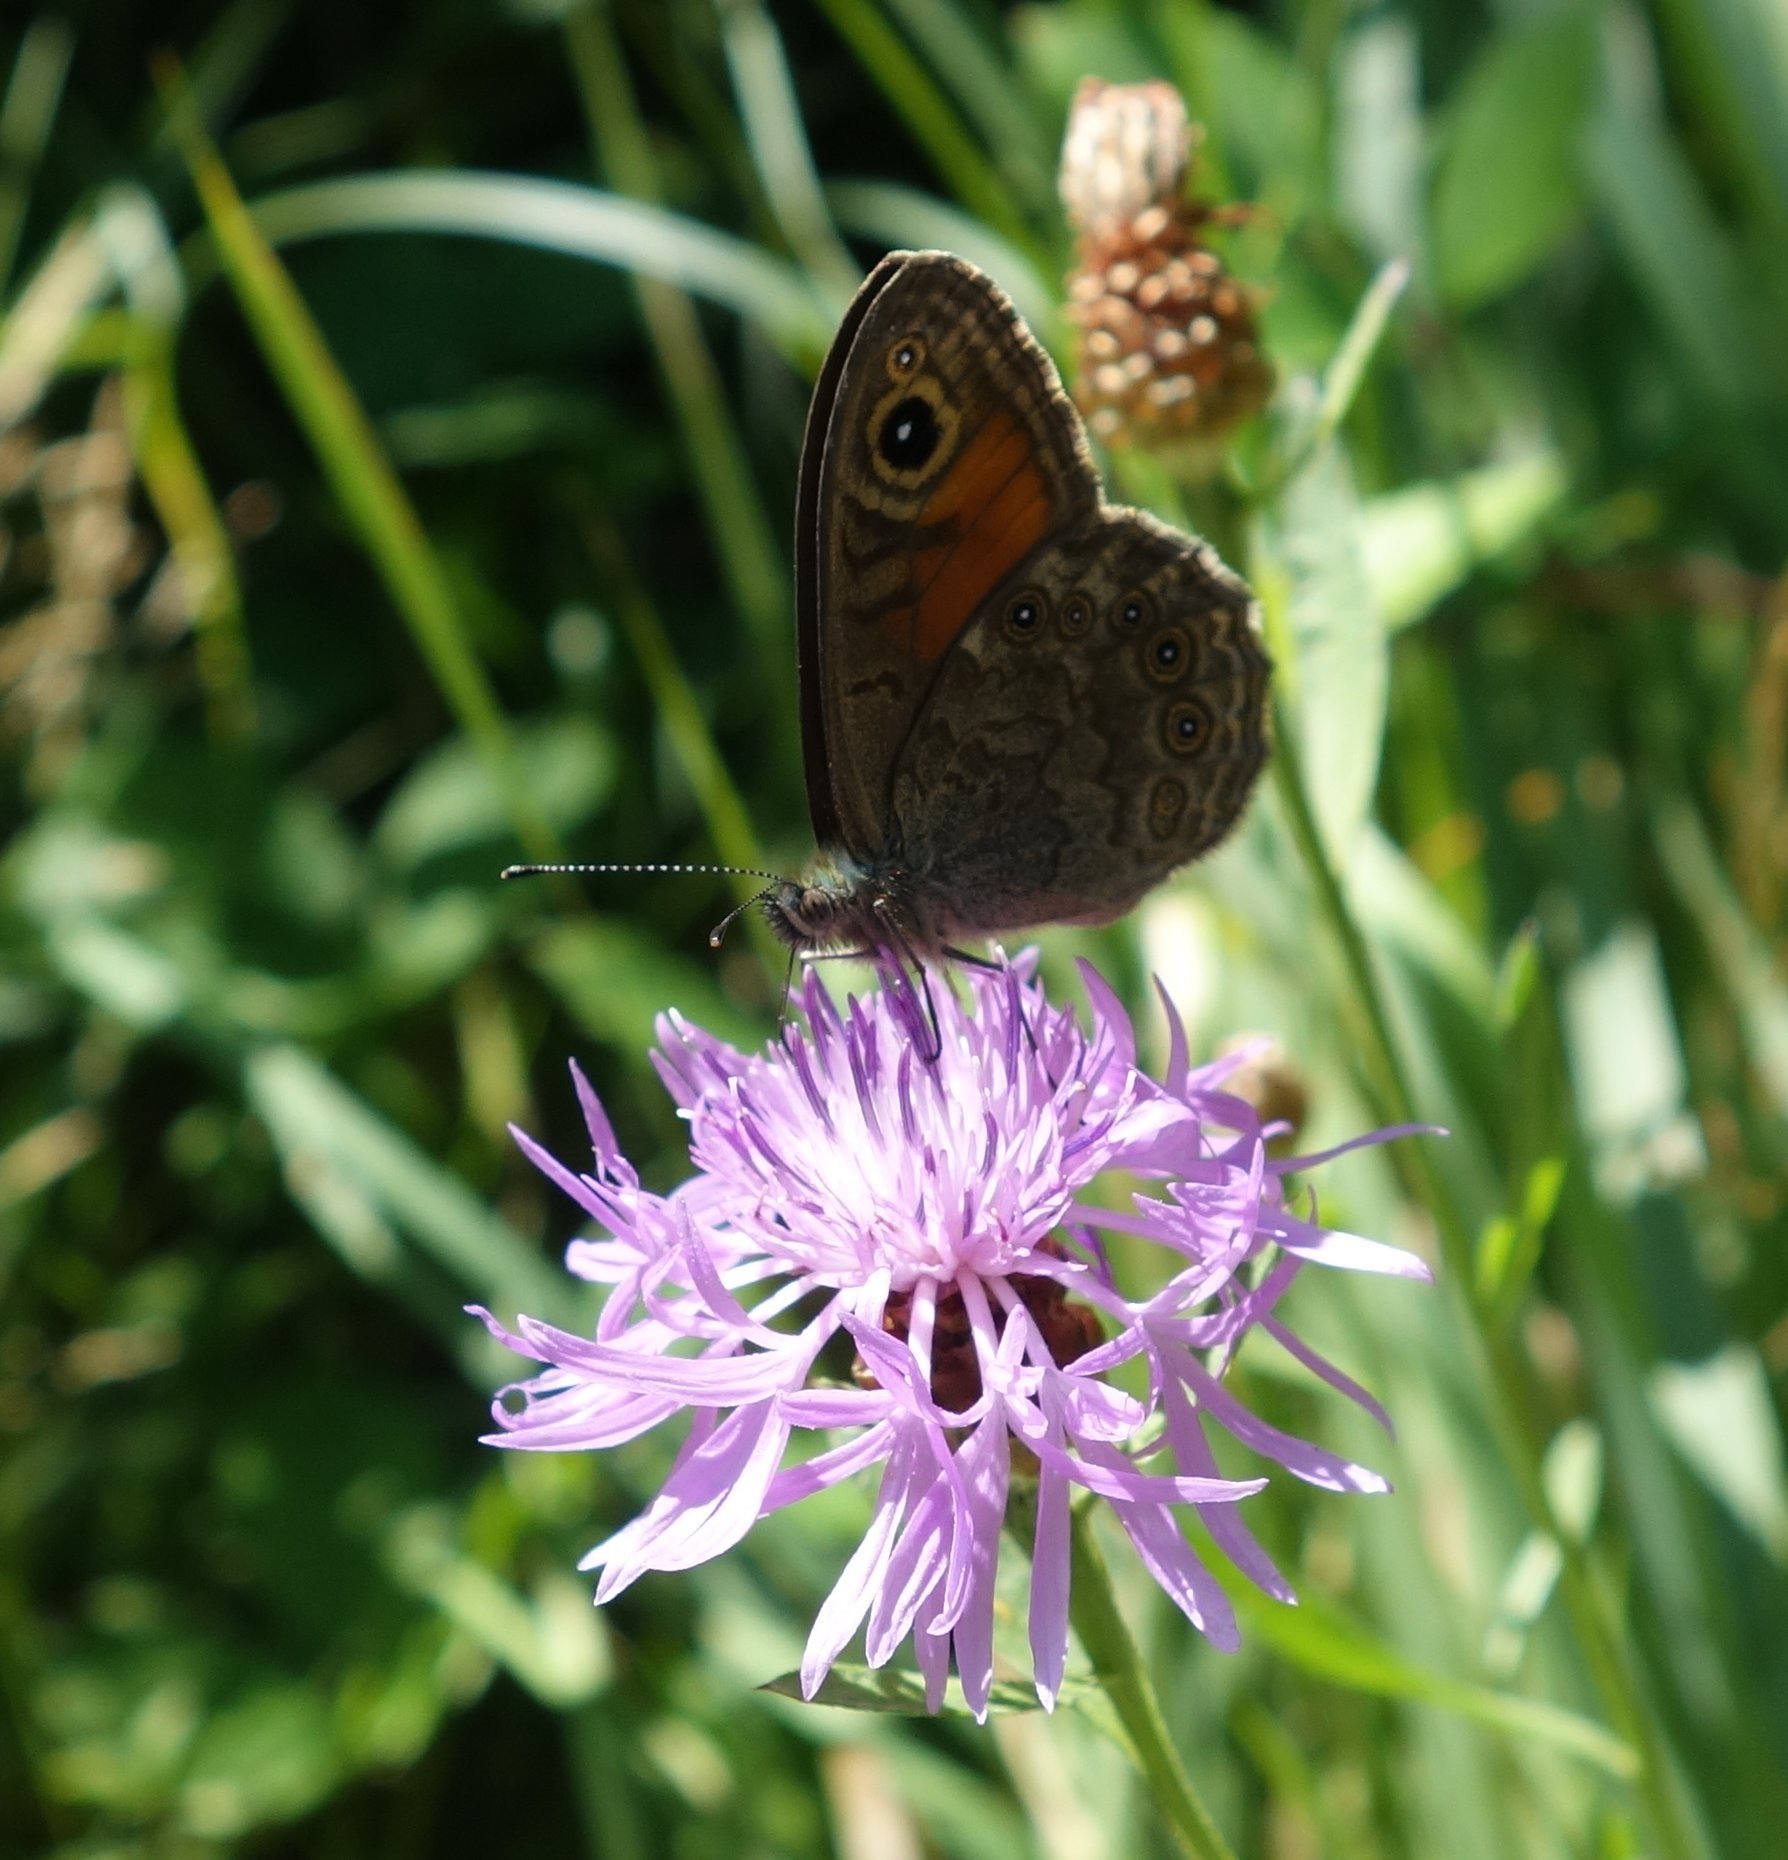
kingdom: Animalia
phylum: Arthropoda
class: Insecta
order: Lepidoptera
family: Nymphalidae
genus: Pararge
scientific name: Pararge Lasiommata megera
